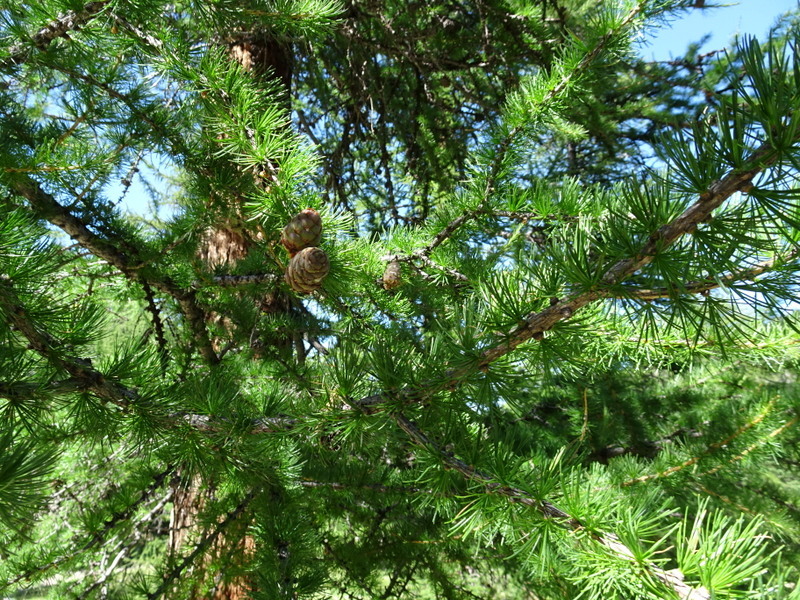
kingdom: Plantae
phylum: Tracheophyta
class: Pinopsida
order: Pinales
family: Pinaceae
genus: Larix
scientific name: Larix decidua
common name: European larch
